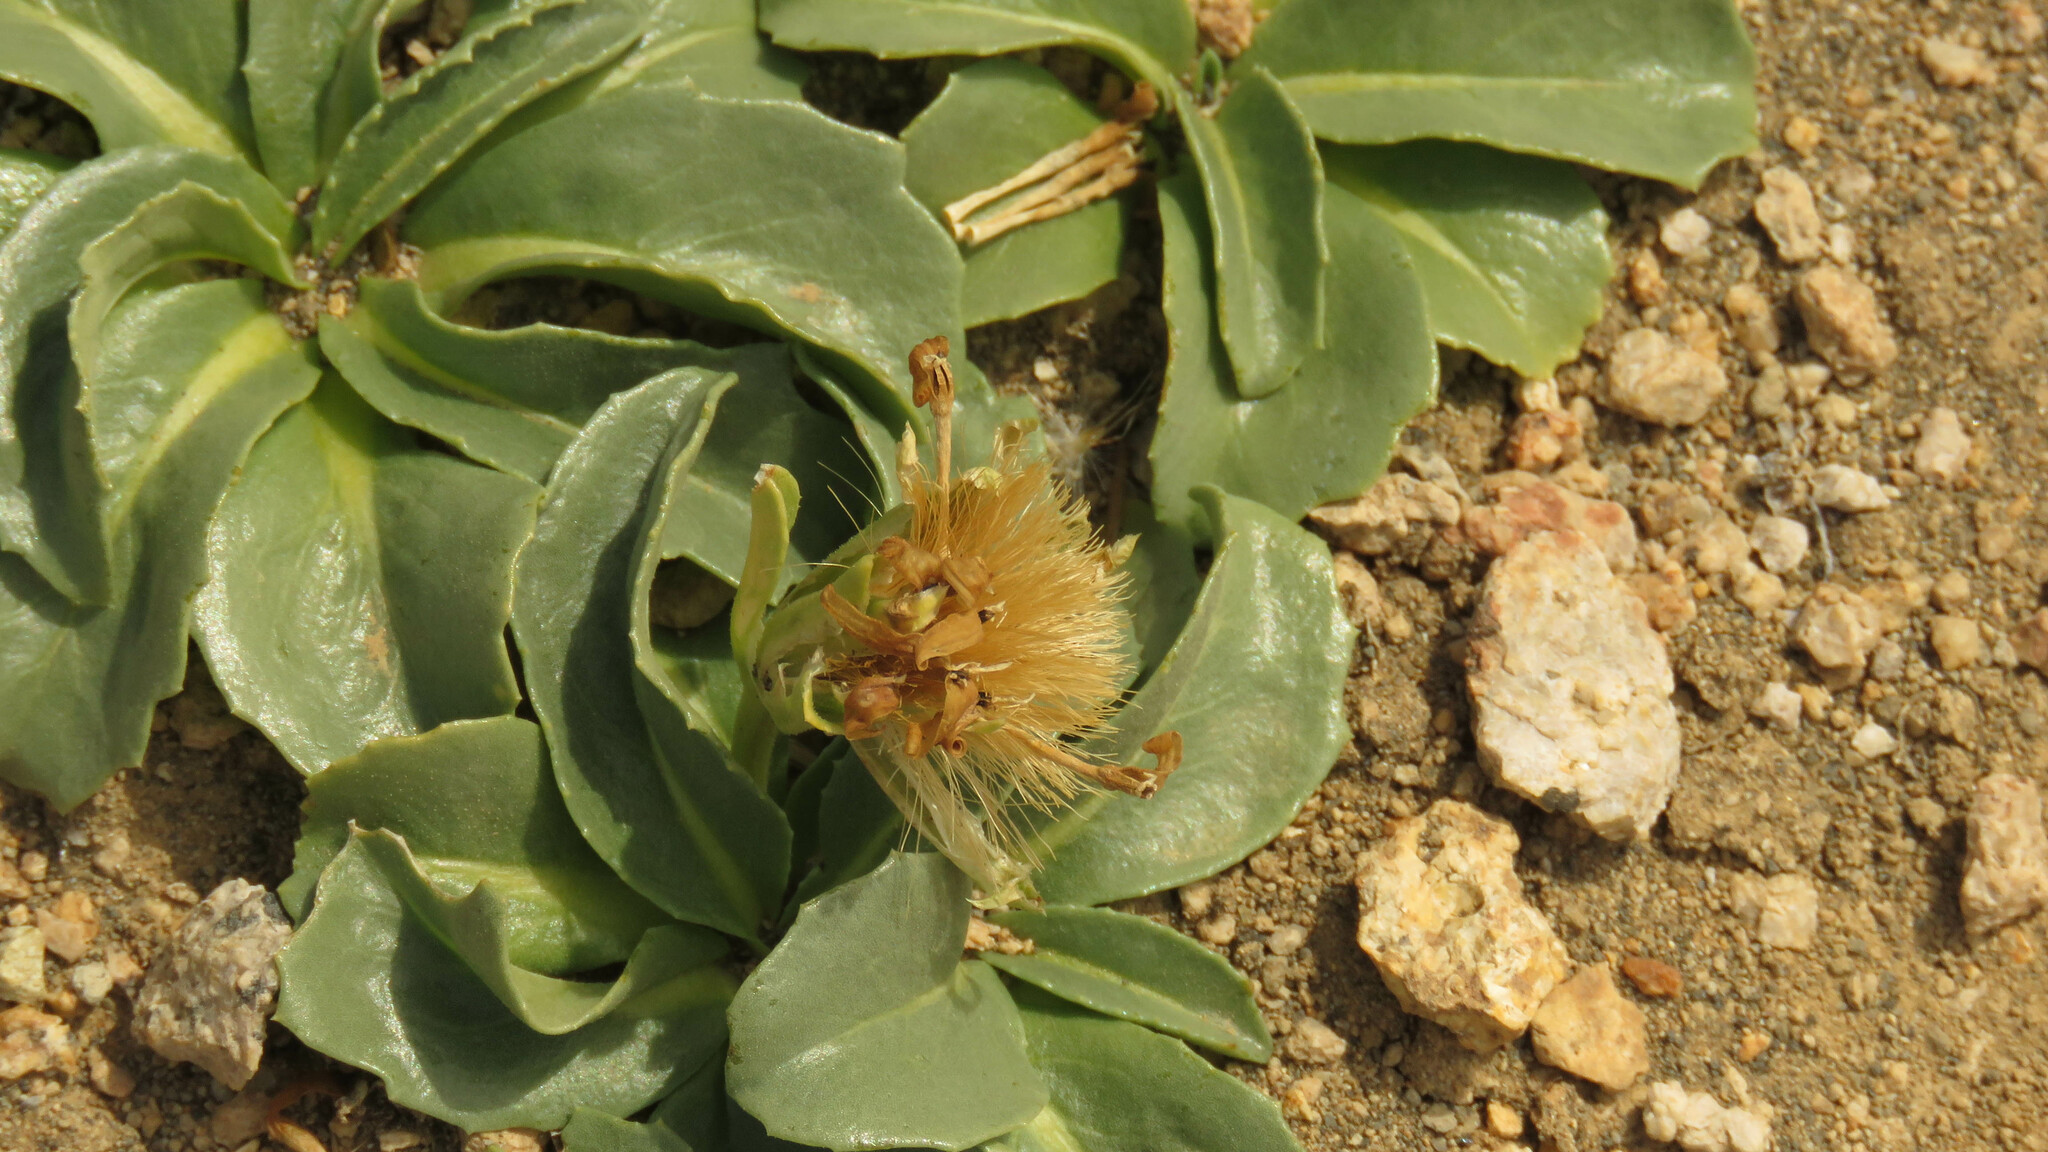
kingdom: Plantae
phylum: Tracheophyta
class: Magnoliopsida
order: Asterales
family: Asteraceae
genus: Perezia
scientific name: Perezia bellidifolia
